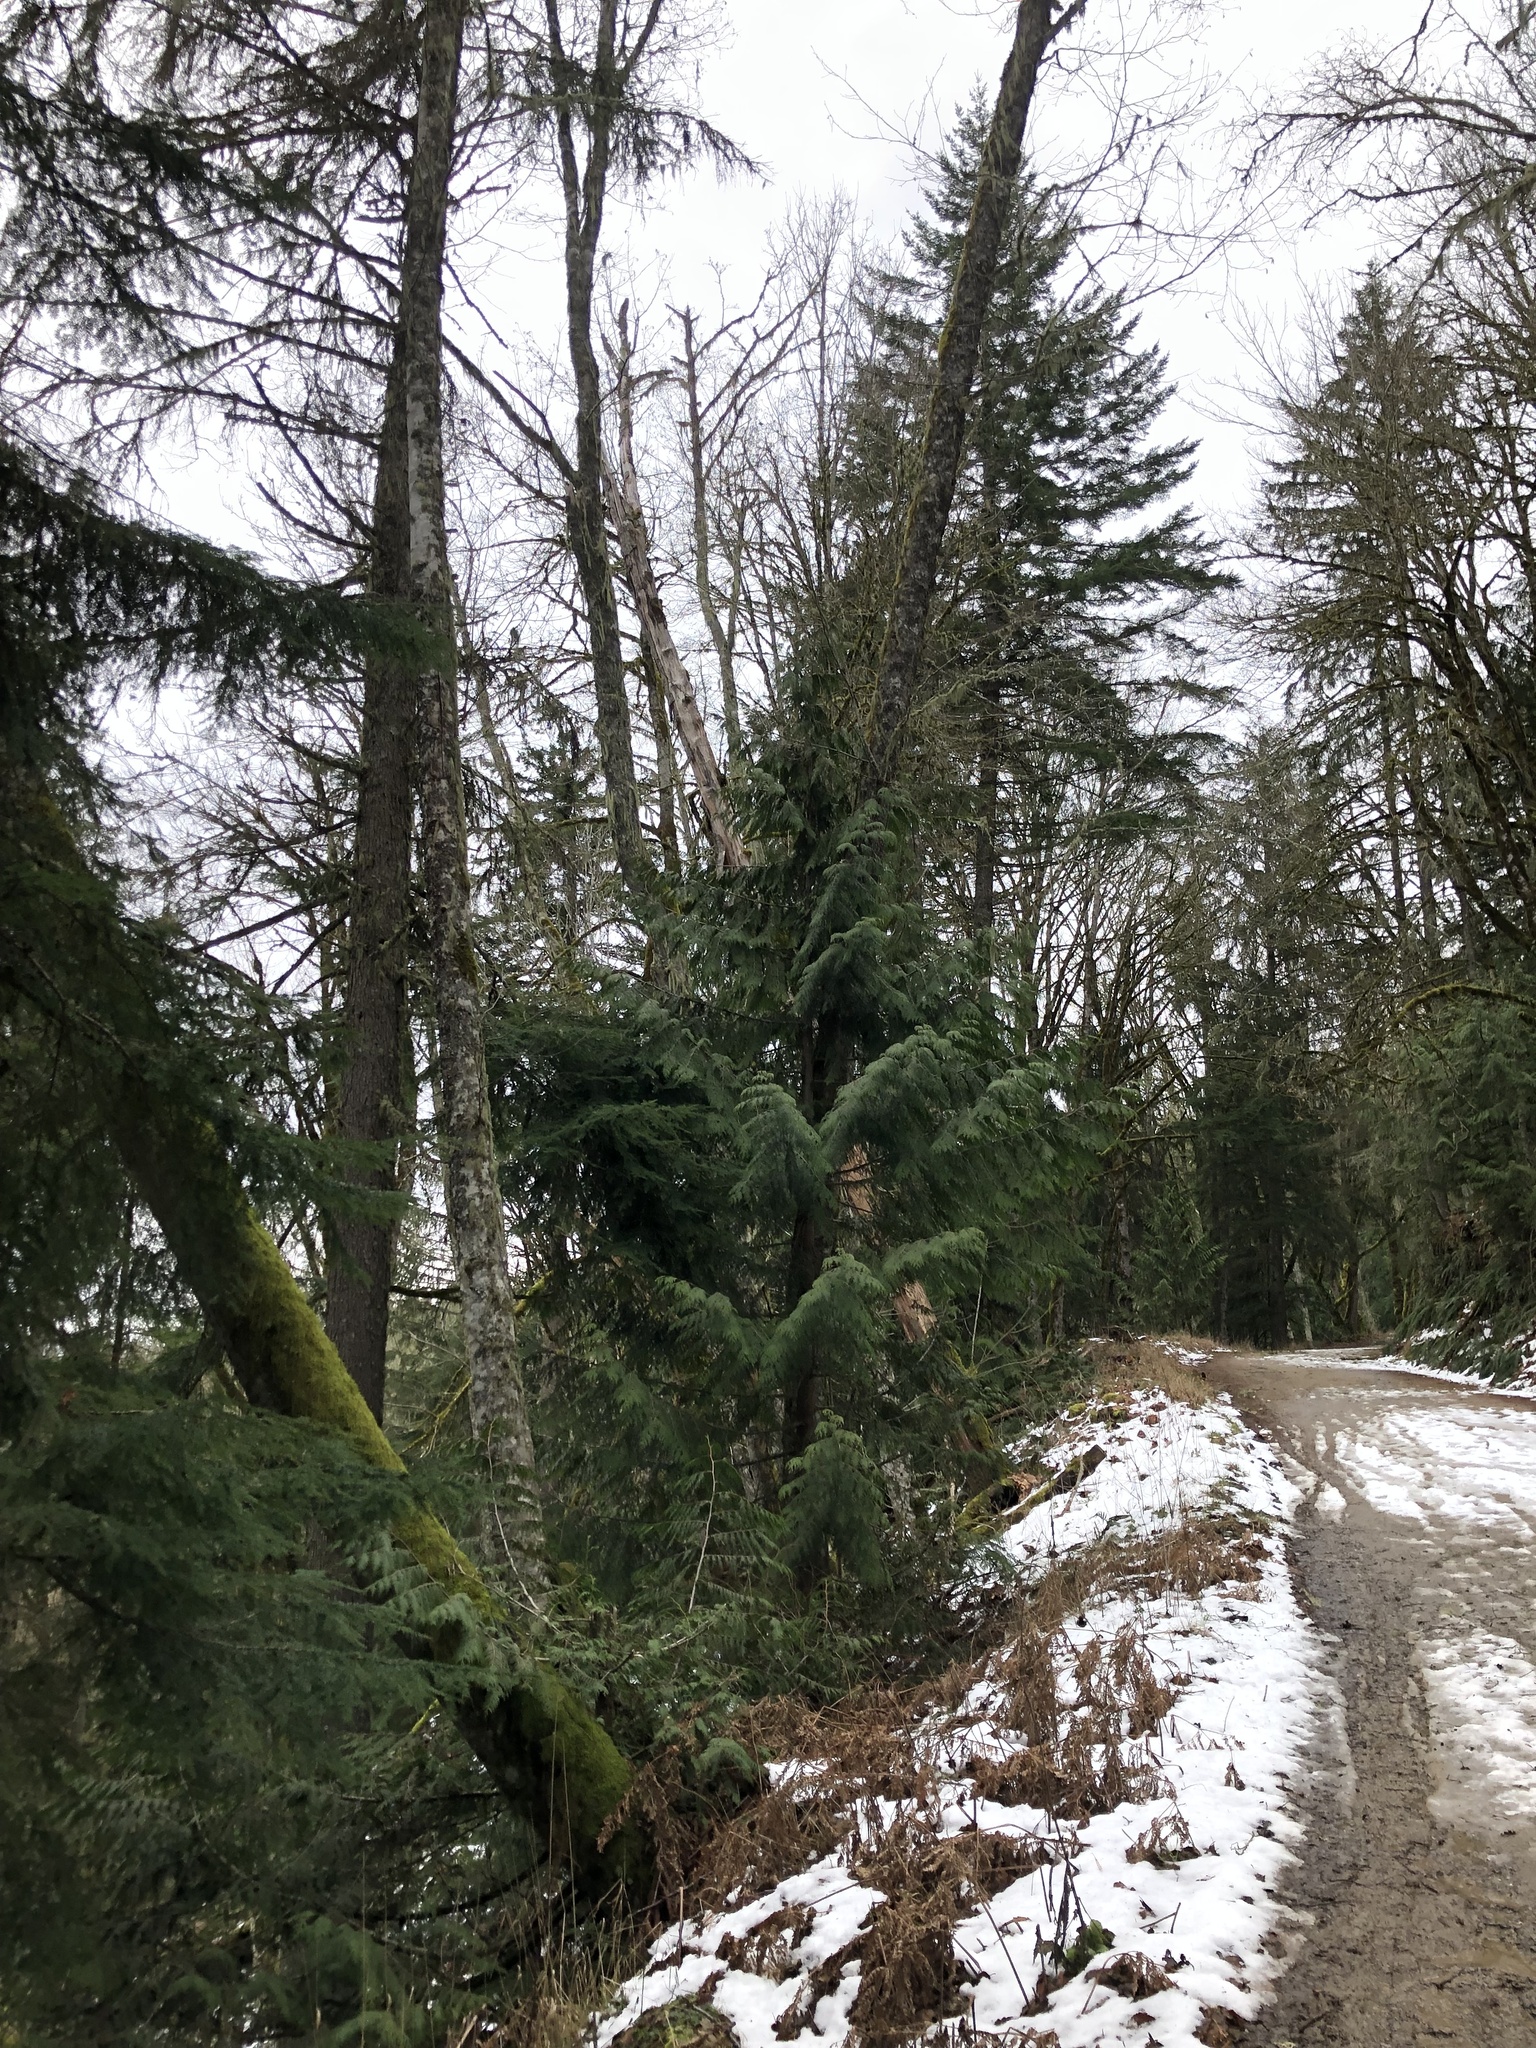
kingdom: Plantae
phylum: Tracheophyta
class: Pinopsida
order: Pinales
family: Cupressaceae
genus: Thuja
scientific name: Thuja plicata
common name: Western red-cedar
